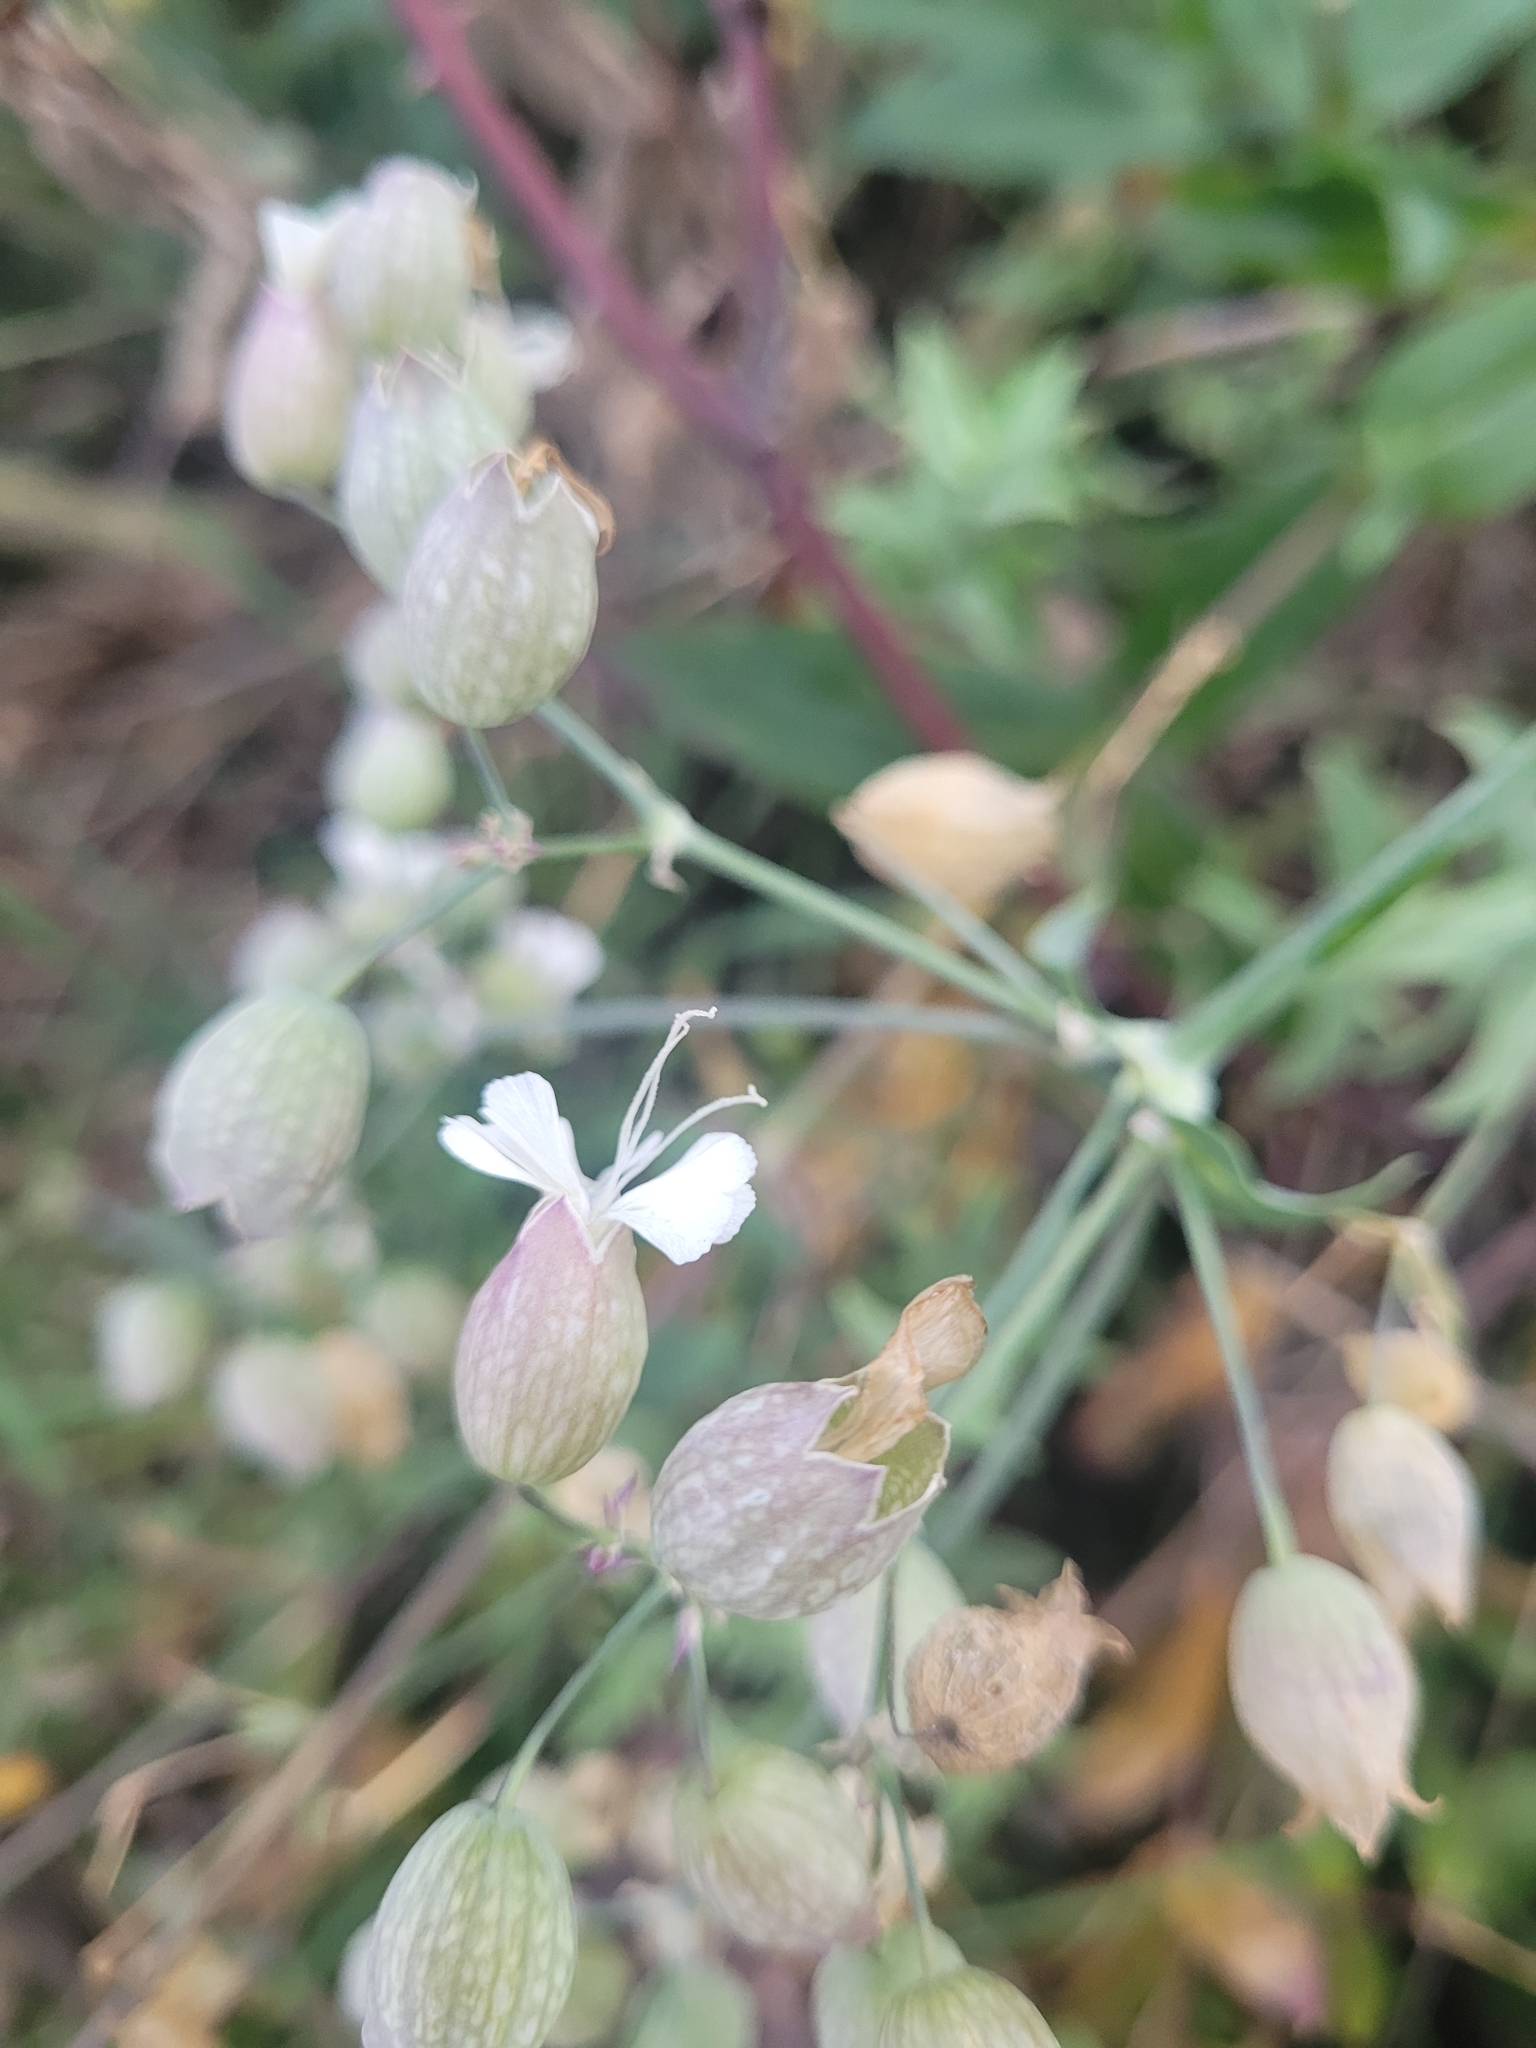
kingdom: Plantae
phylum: Tracheophyta
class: Magnoliopsida
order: Caryophyllales
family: Caryophyllaceae
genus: Silene
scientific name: Silene vulgaris
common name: Bladder campion
